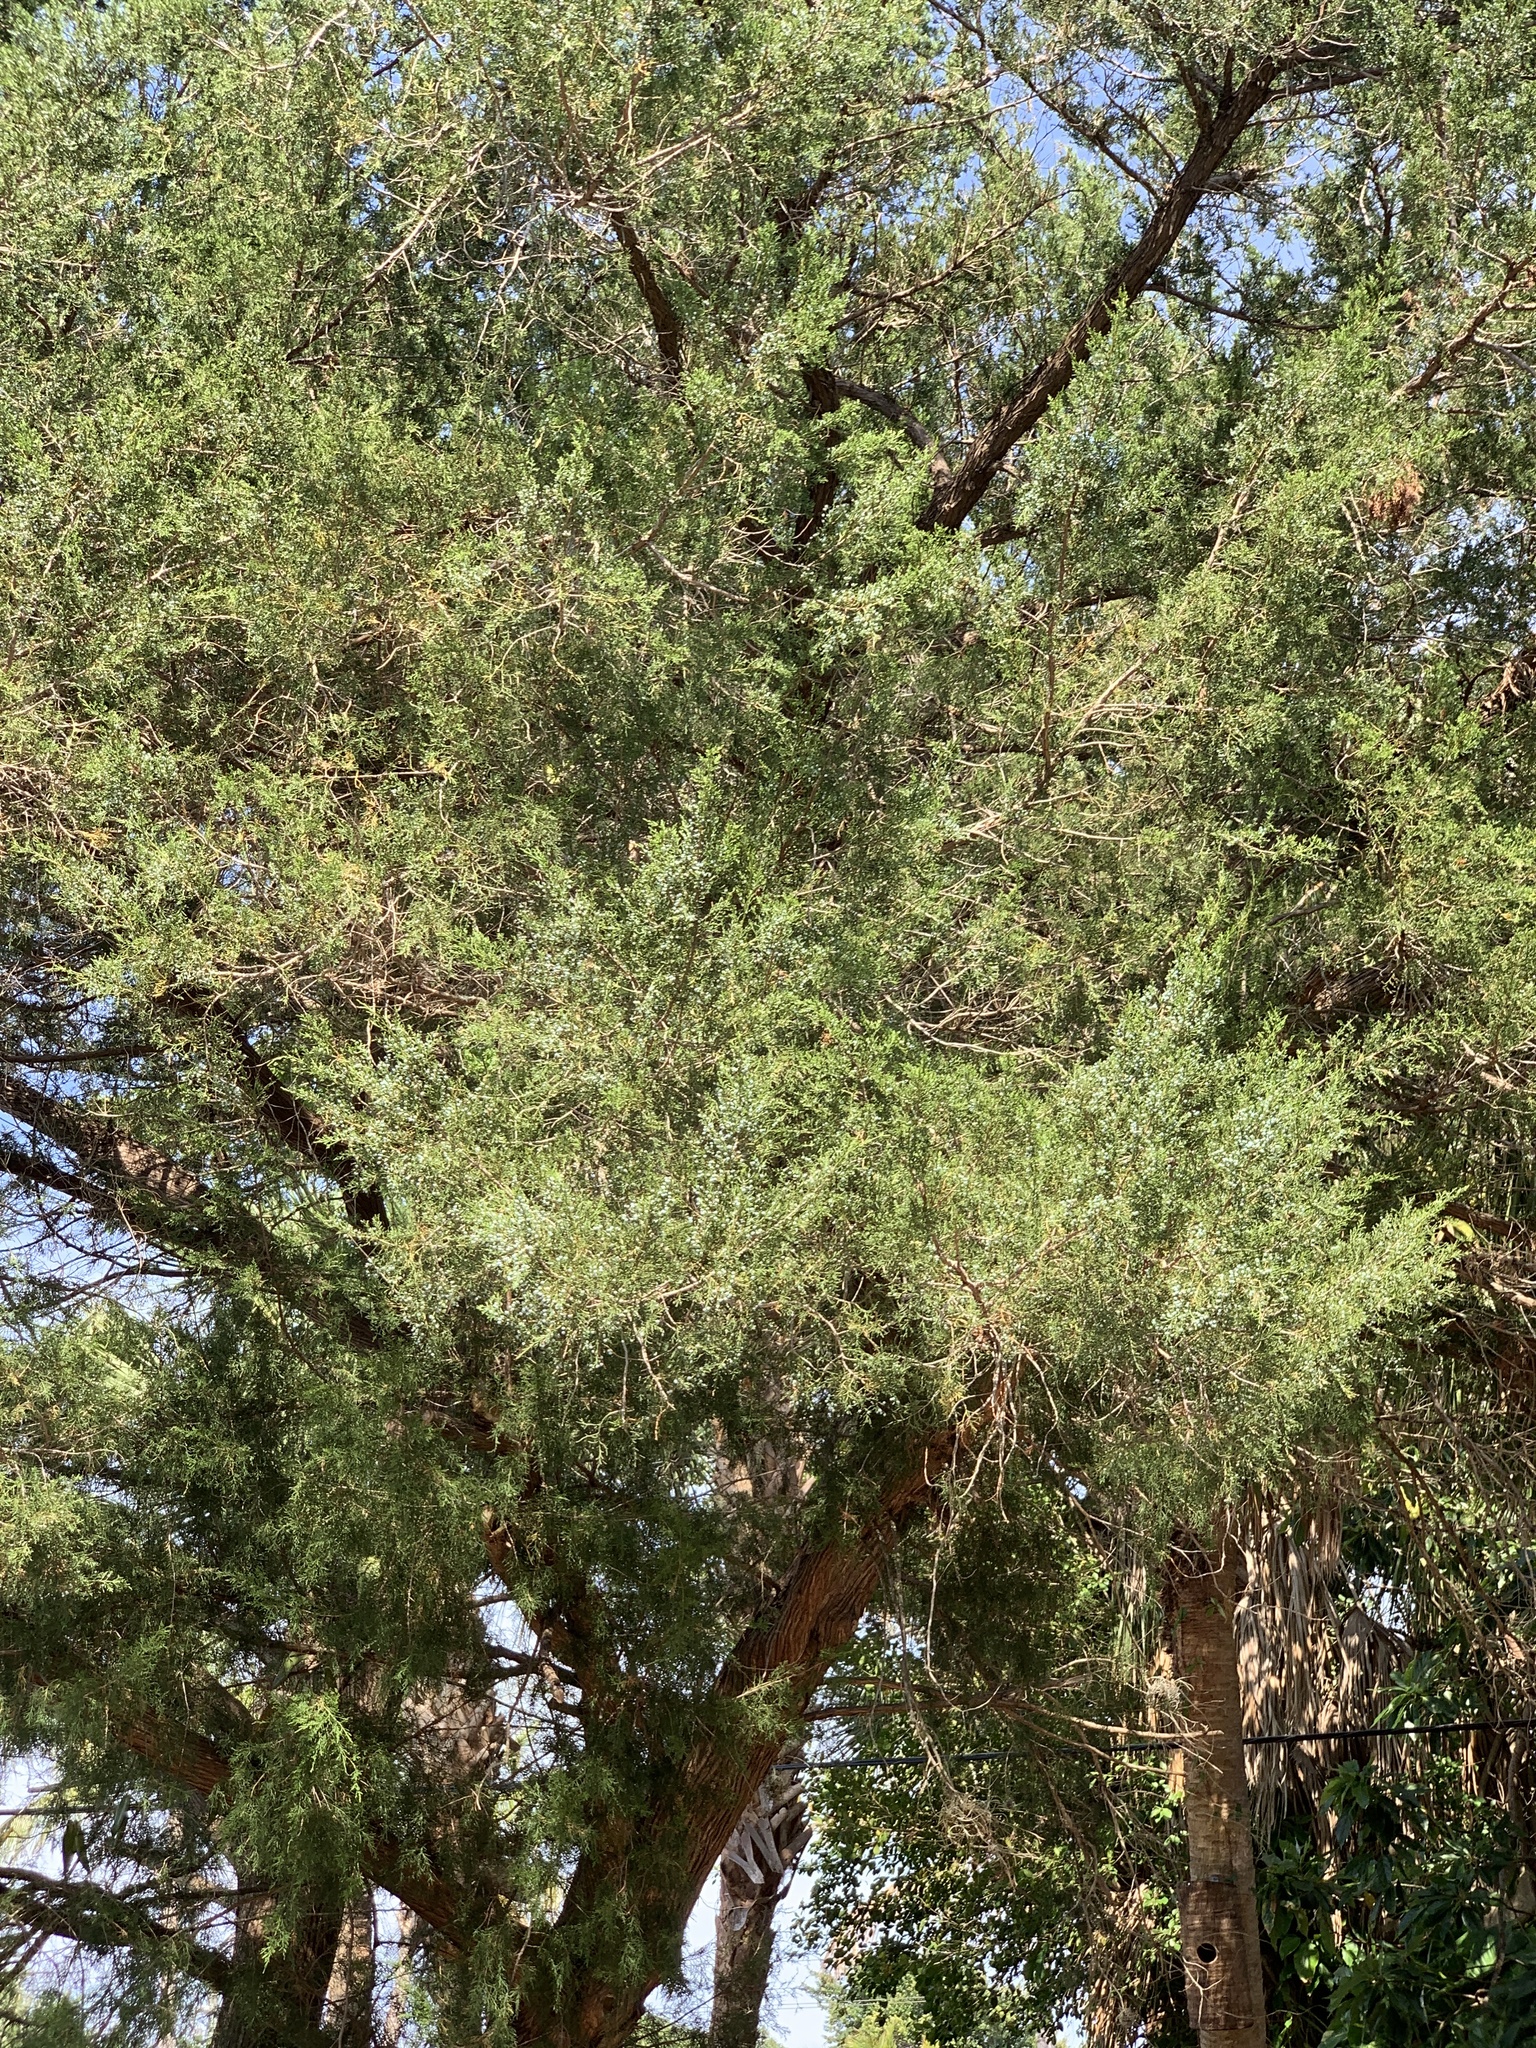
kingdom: Plantae
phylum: Tracheophyta
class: Pinopsida
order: Pinales
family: Cupressaceae
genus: Juniperus
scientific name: Juniperus virginiana
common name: Red juniper
